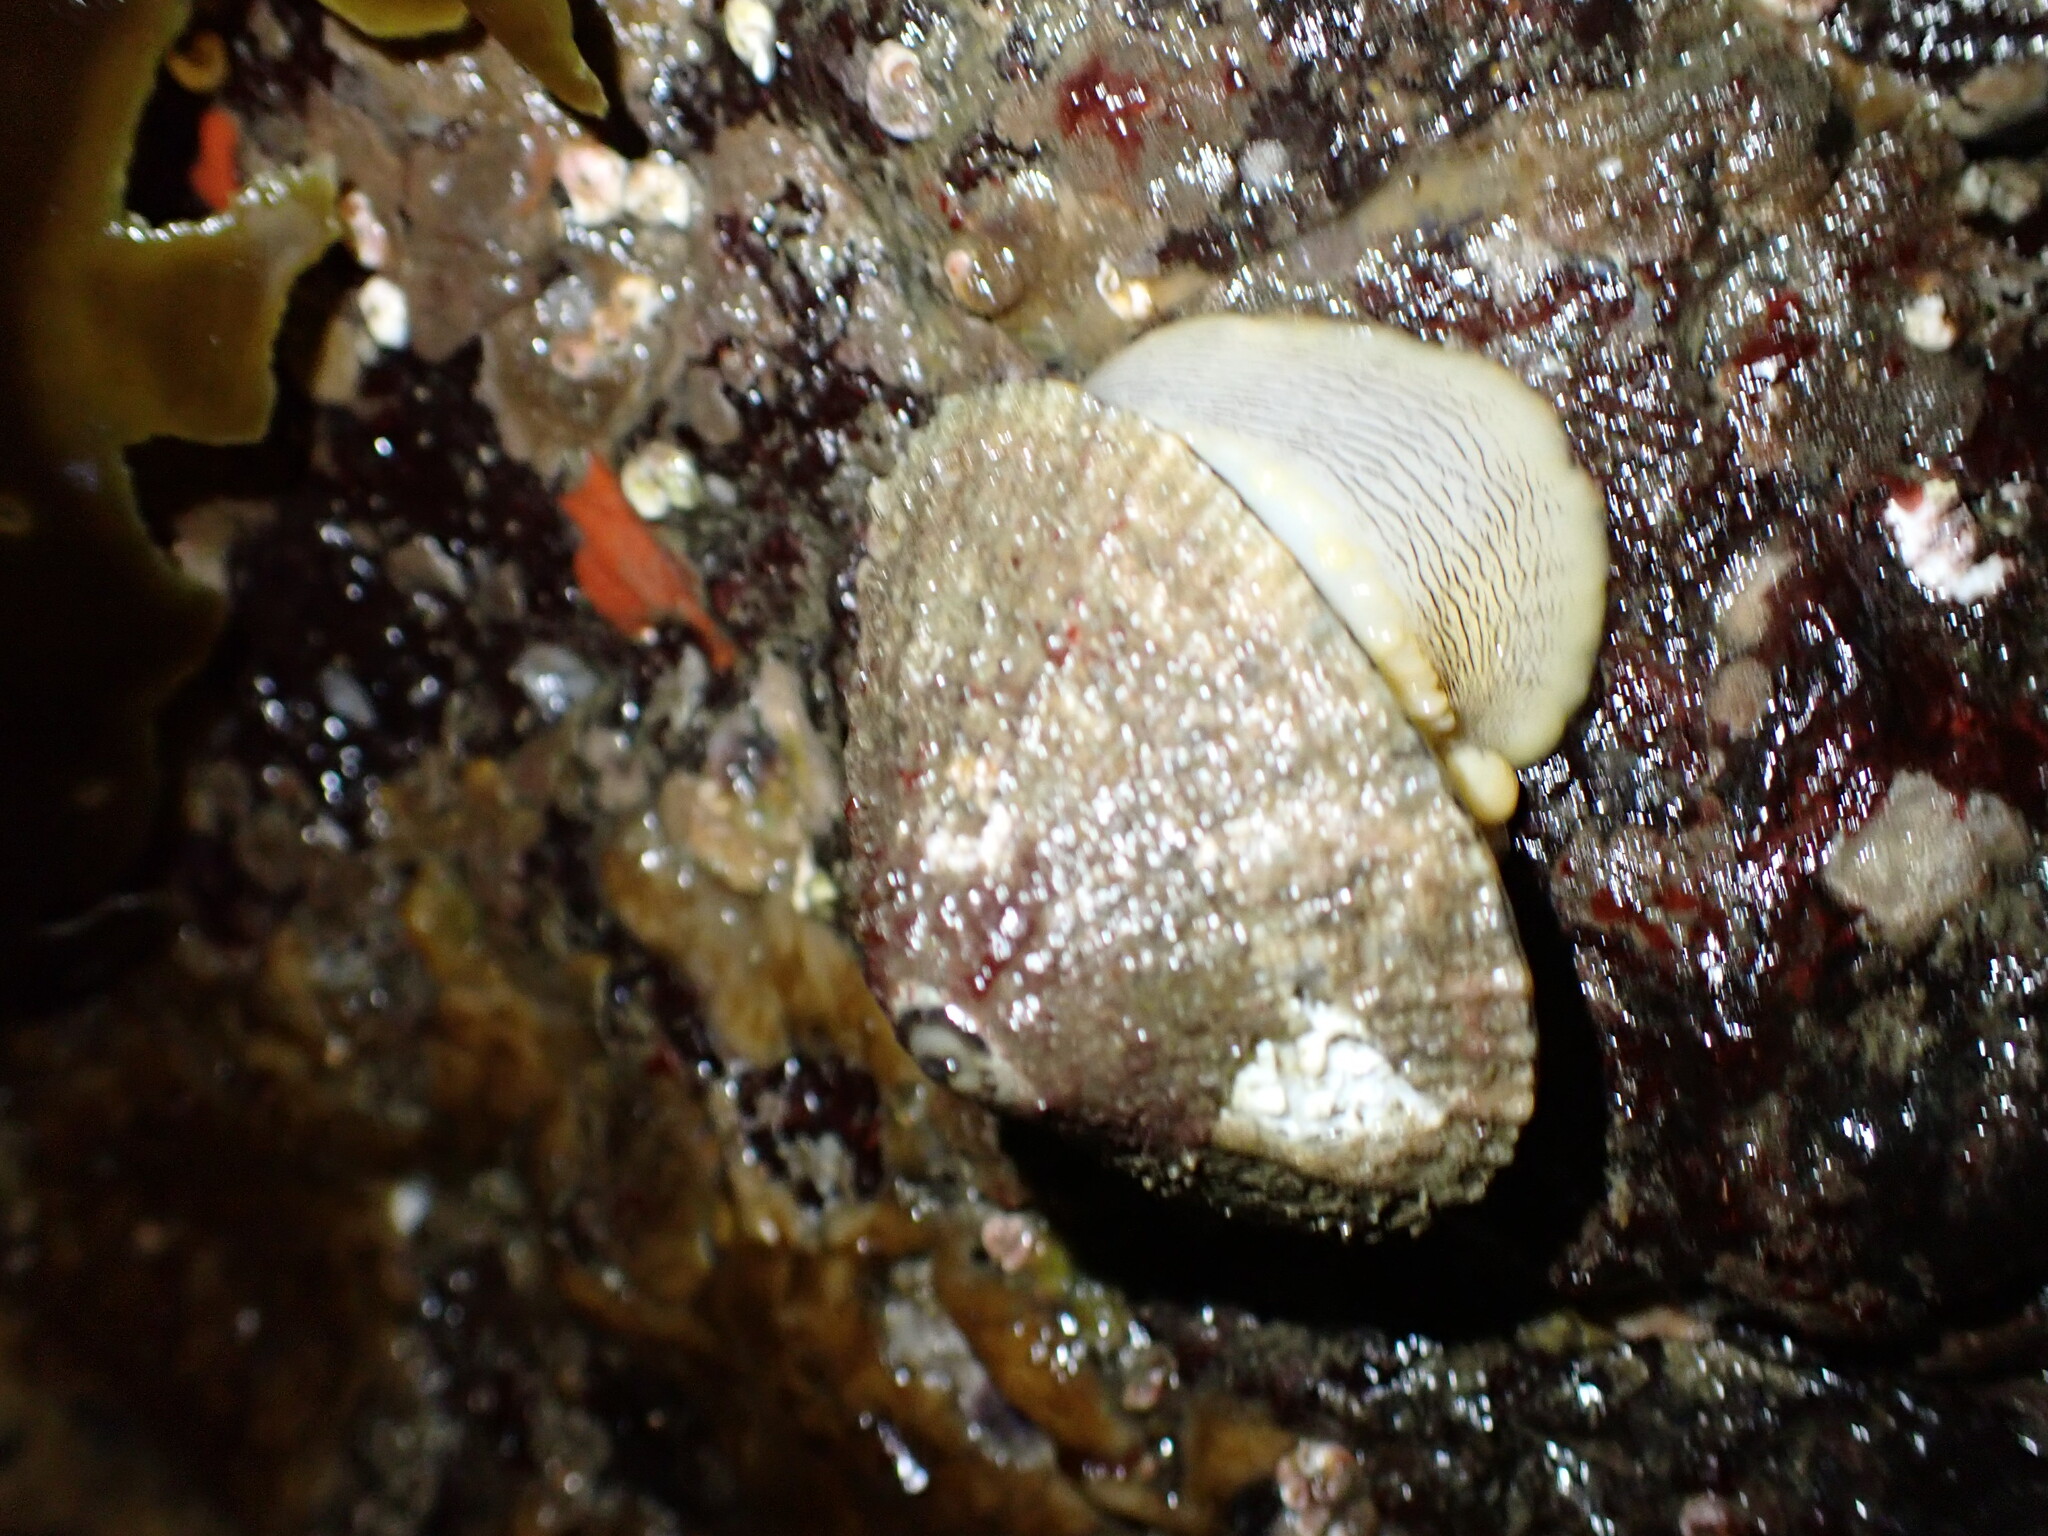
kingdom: Animalia
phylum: Mollusca
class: Gastropoda
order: Lepetellida
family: Fissurellidae
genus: Diodora
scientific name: Diodora aspera
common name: Rough keyhole limpet
